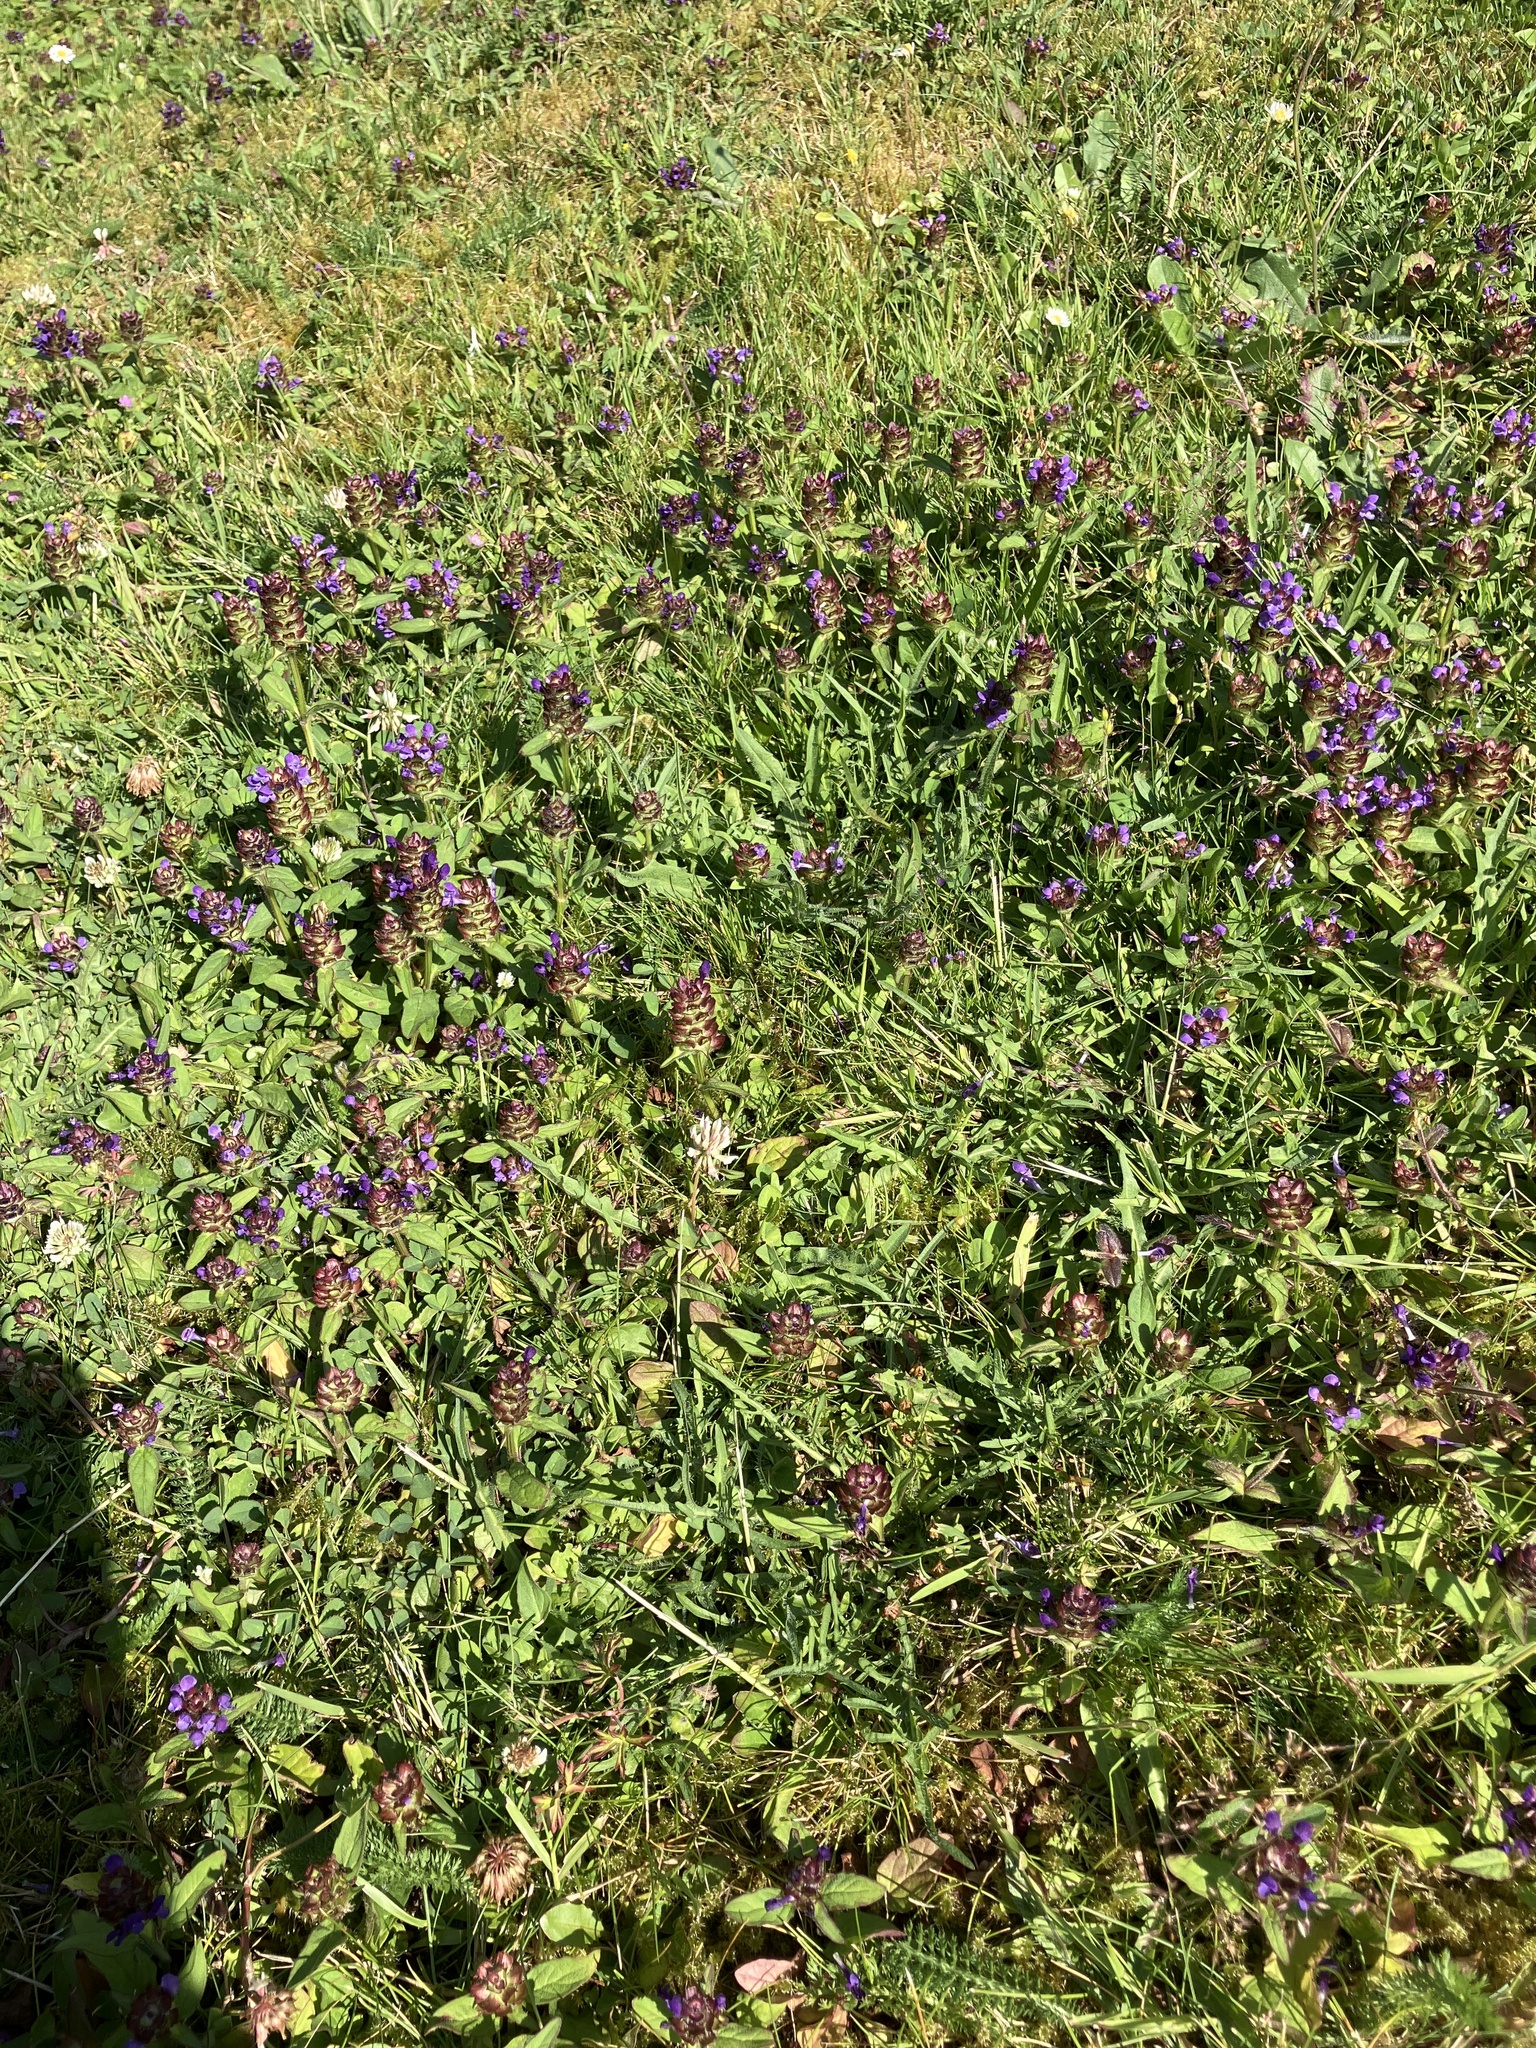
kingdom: Plantae
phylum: Tracheophyta
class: Magnoliopsida
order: Lamiales
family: Lamiaceae
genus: Prunella
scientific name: Prunella vulgaris
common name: Heal-all
